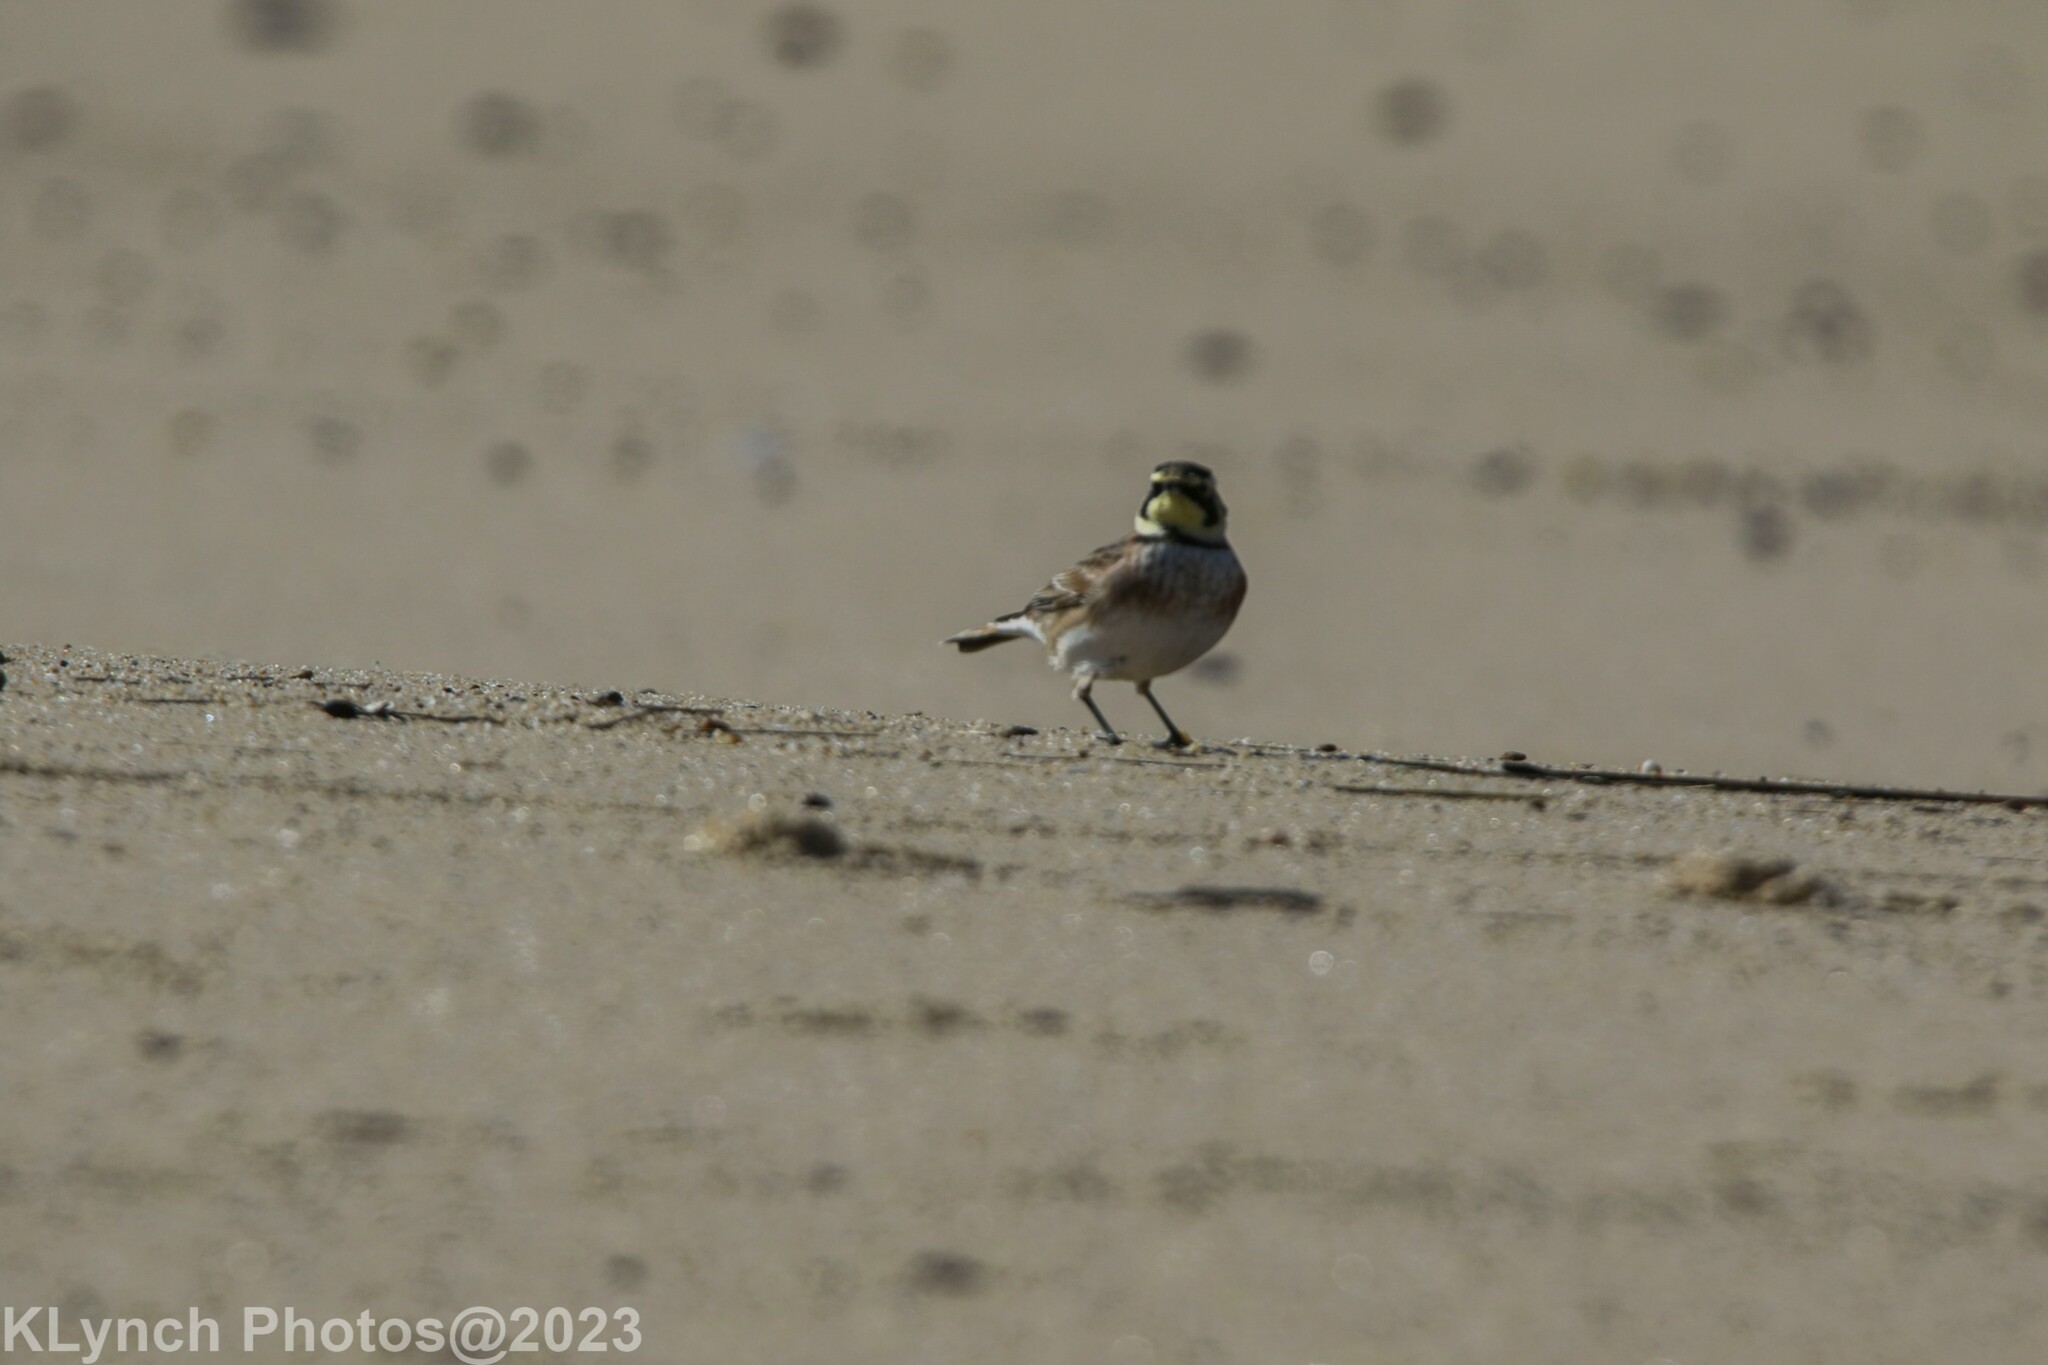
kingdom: Animalia
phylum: Chordata
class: Aves
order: Passeriformes
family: Alaudidae
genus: Eremophila
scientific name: Eremophila alpestris
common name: Horned lark
